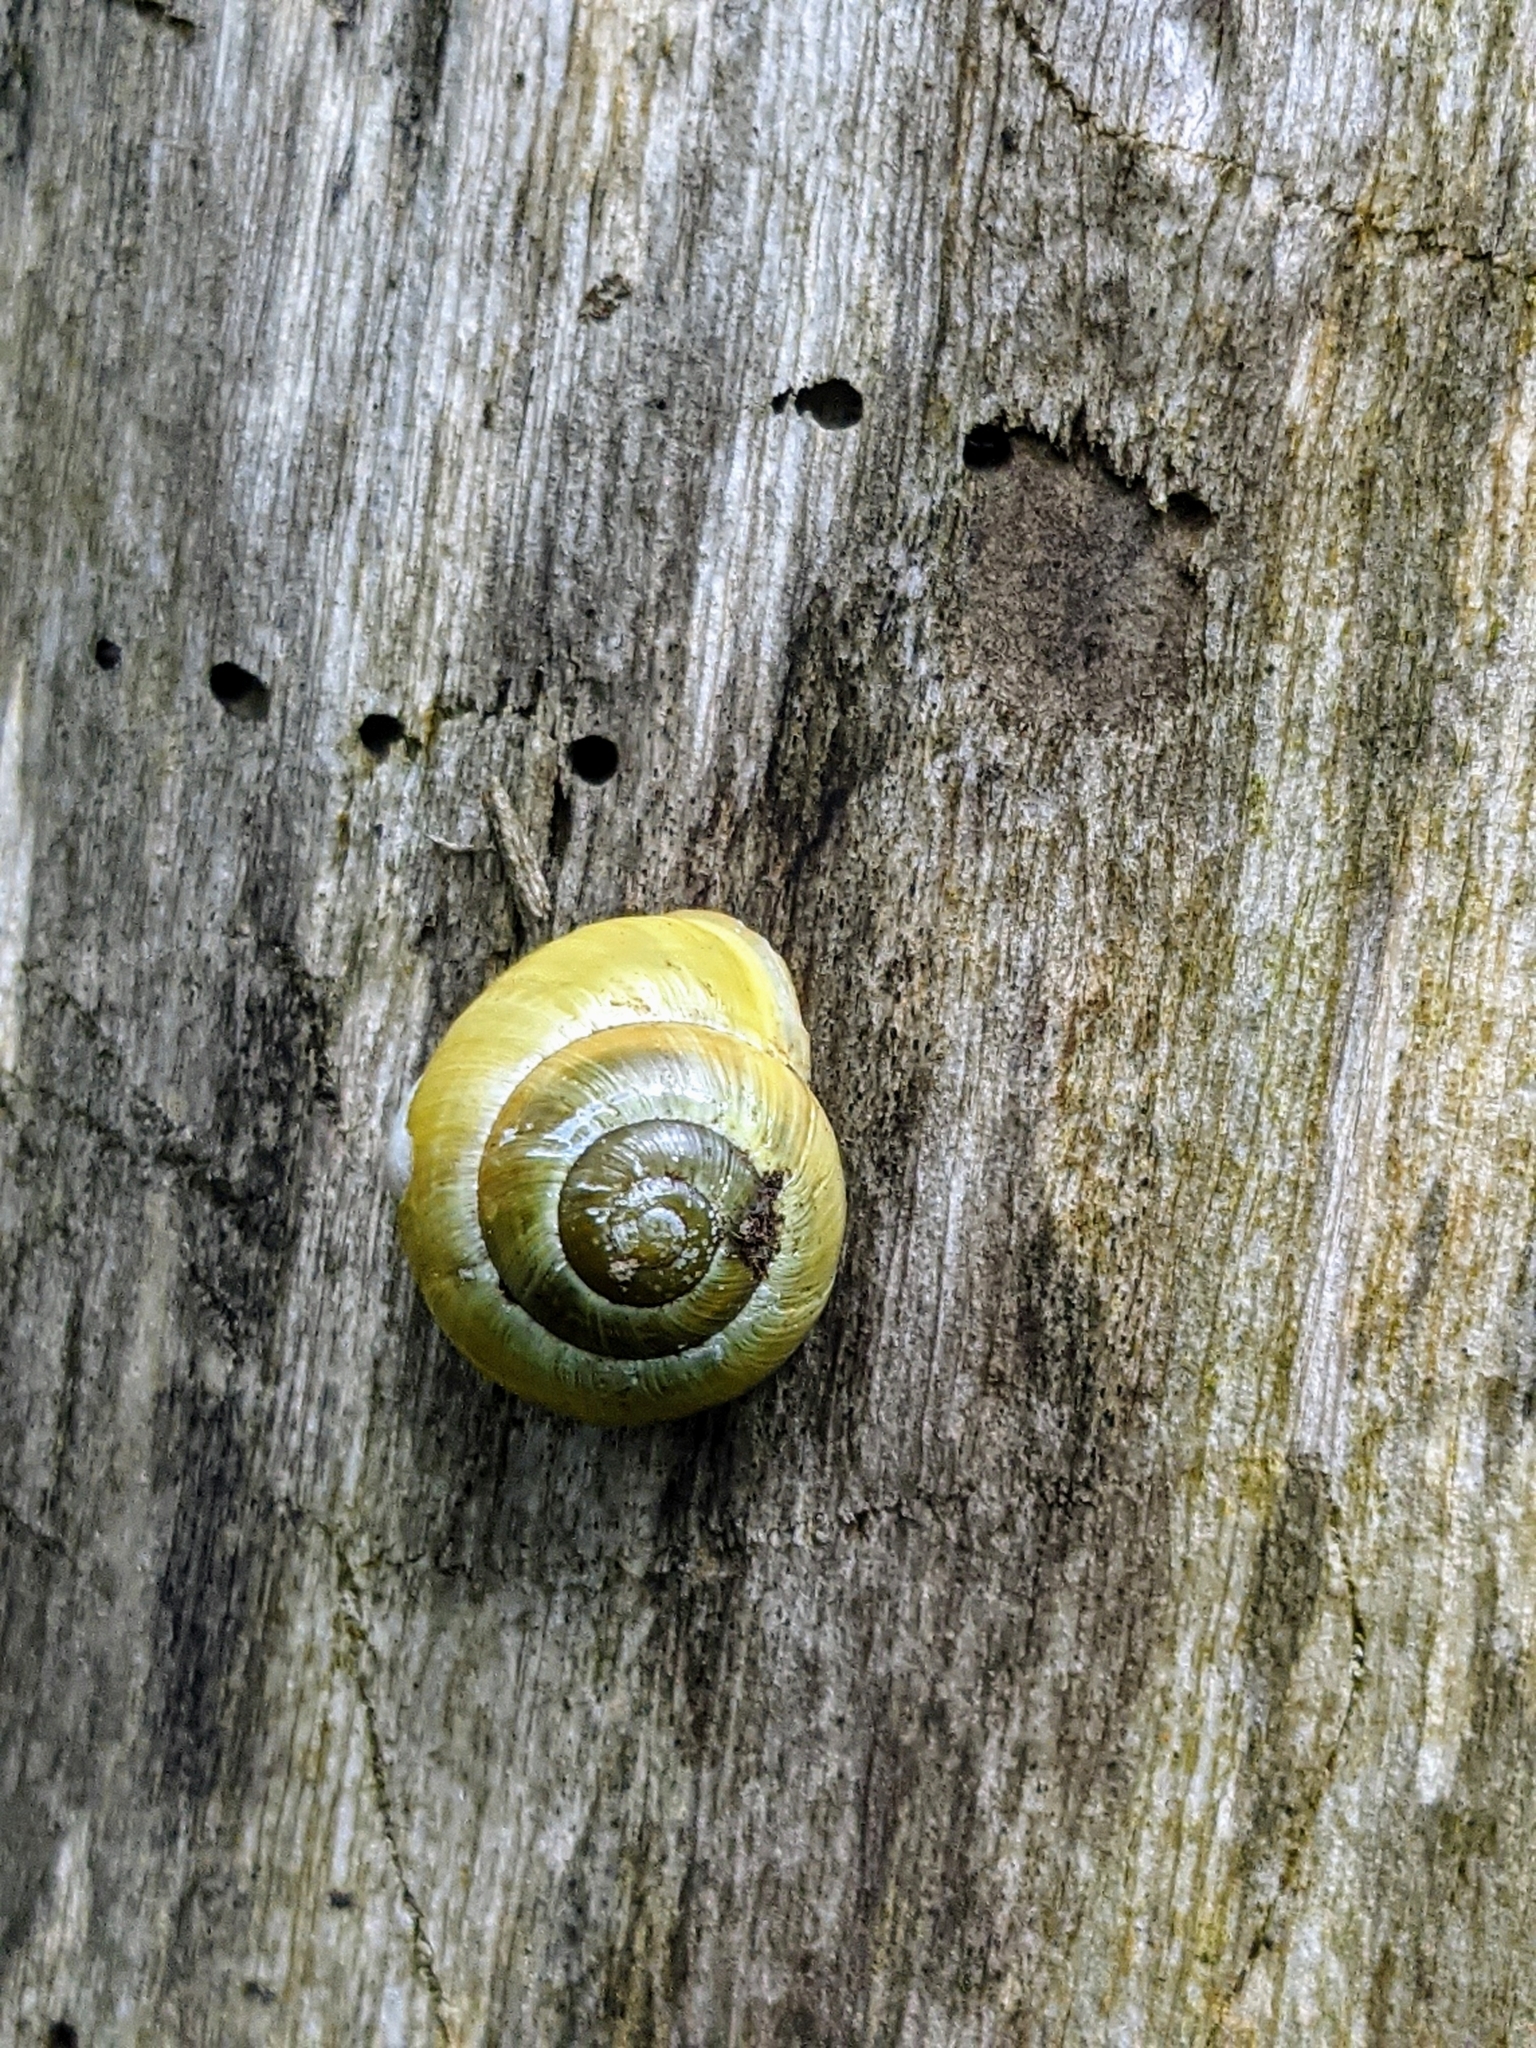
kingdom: Animalia
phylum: Mollusca
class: Gastropoda
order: Stylommatophora
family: Helicidae
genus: Cepaea
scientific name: Cepaea hortensis
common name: White-lip gardensnail
